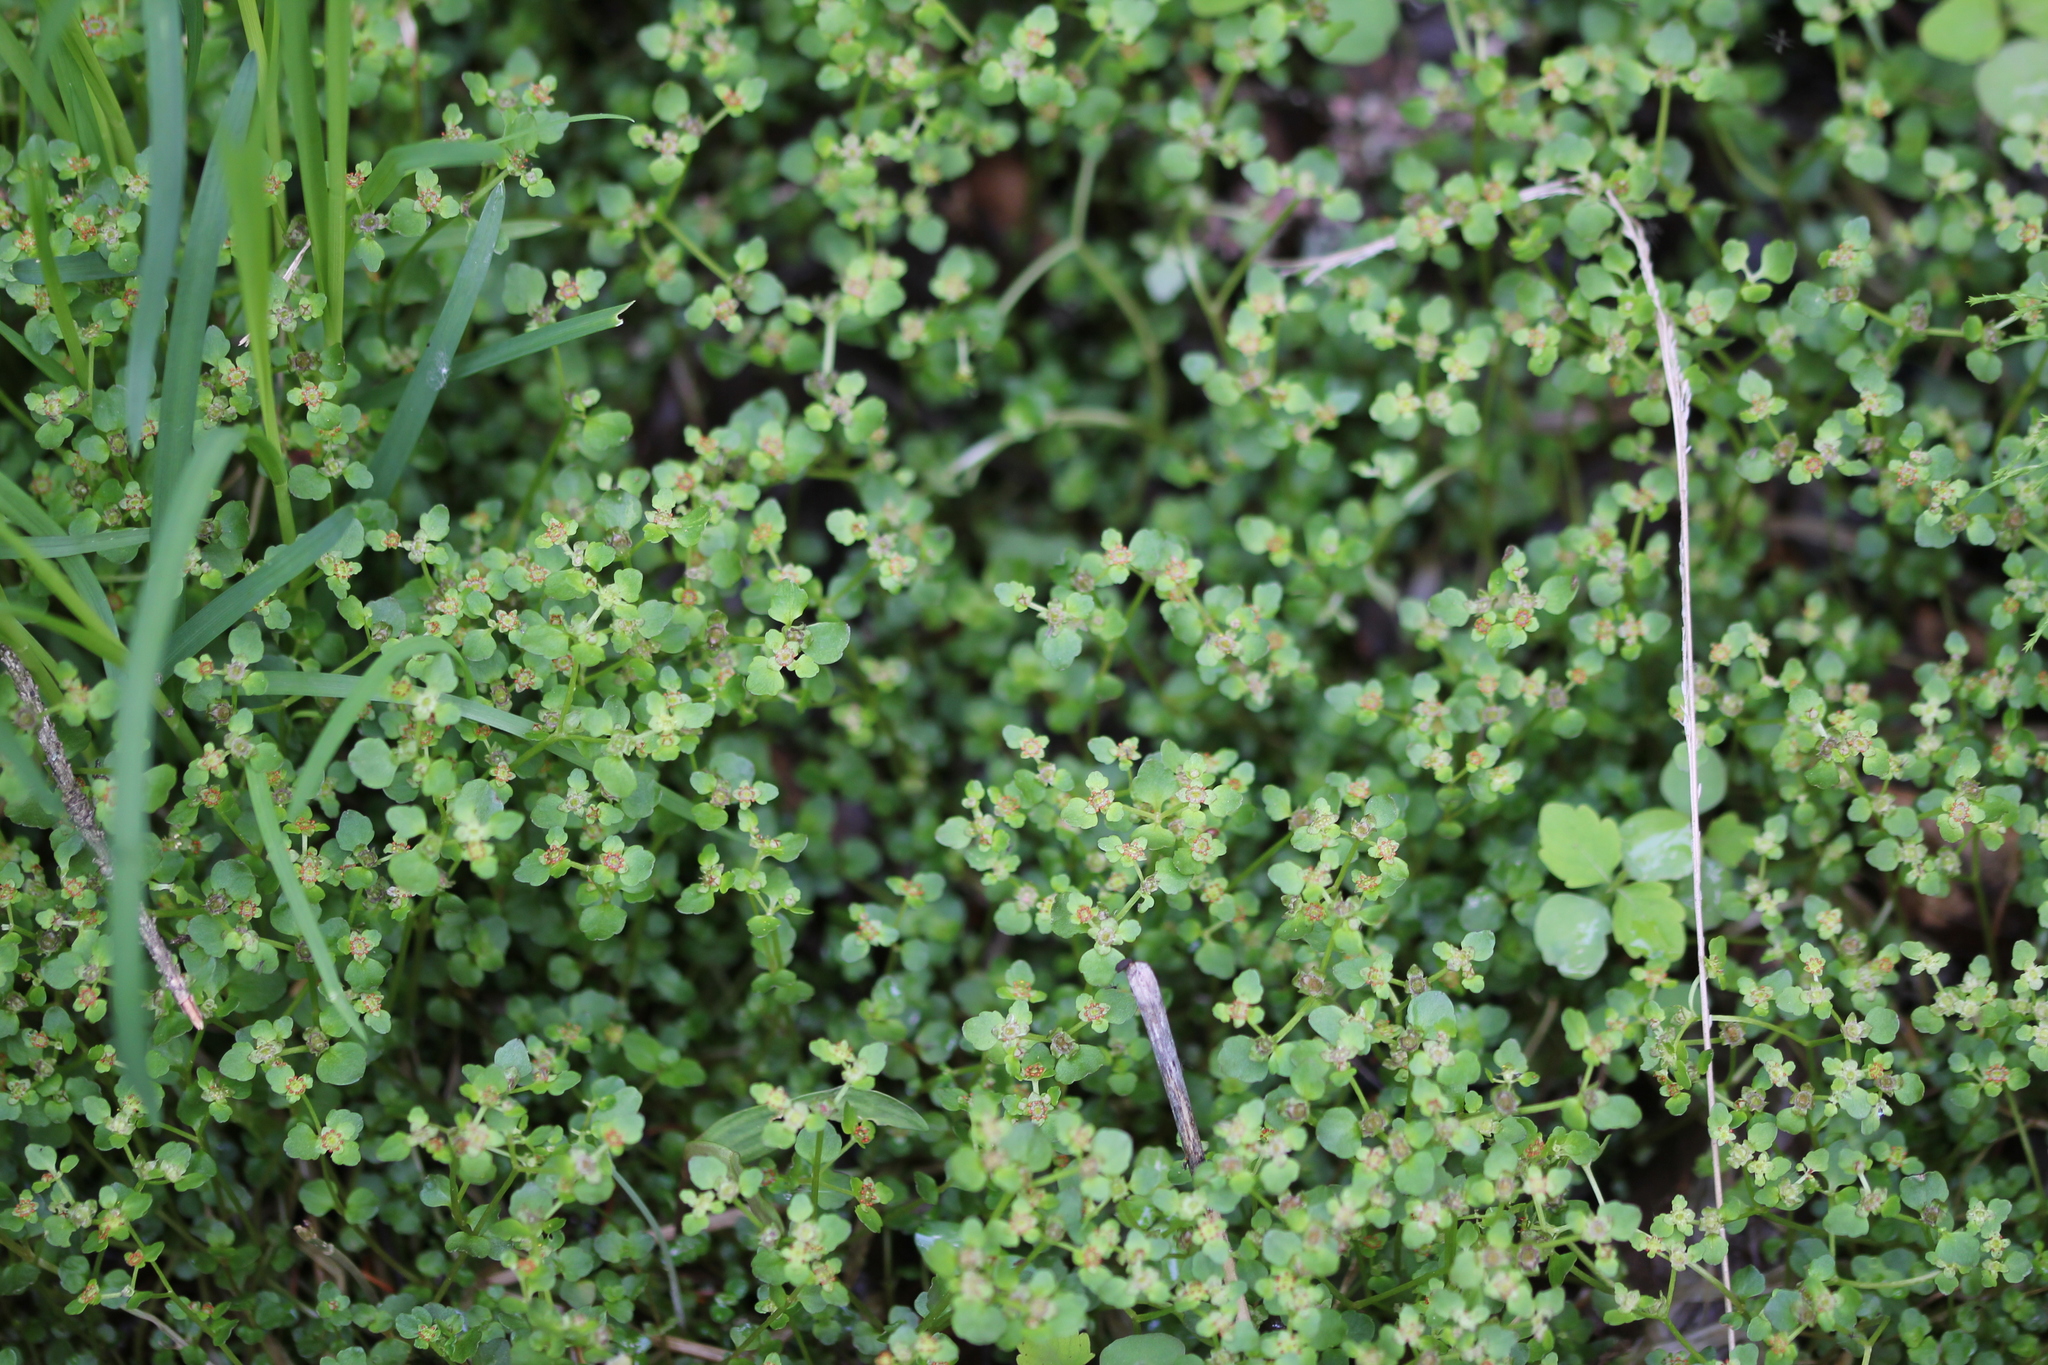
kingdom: Plantae
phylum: Tracheophyta
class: Magnoliopsida
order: Saxifragales
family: Saxifragaceae
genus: Chrysosplenium
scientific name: Chrysosplenium americanum
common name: American golden-saxifrage
